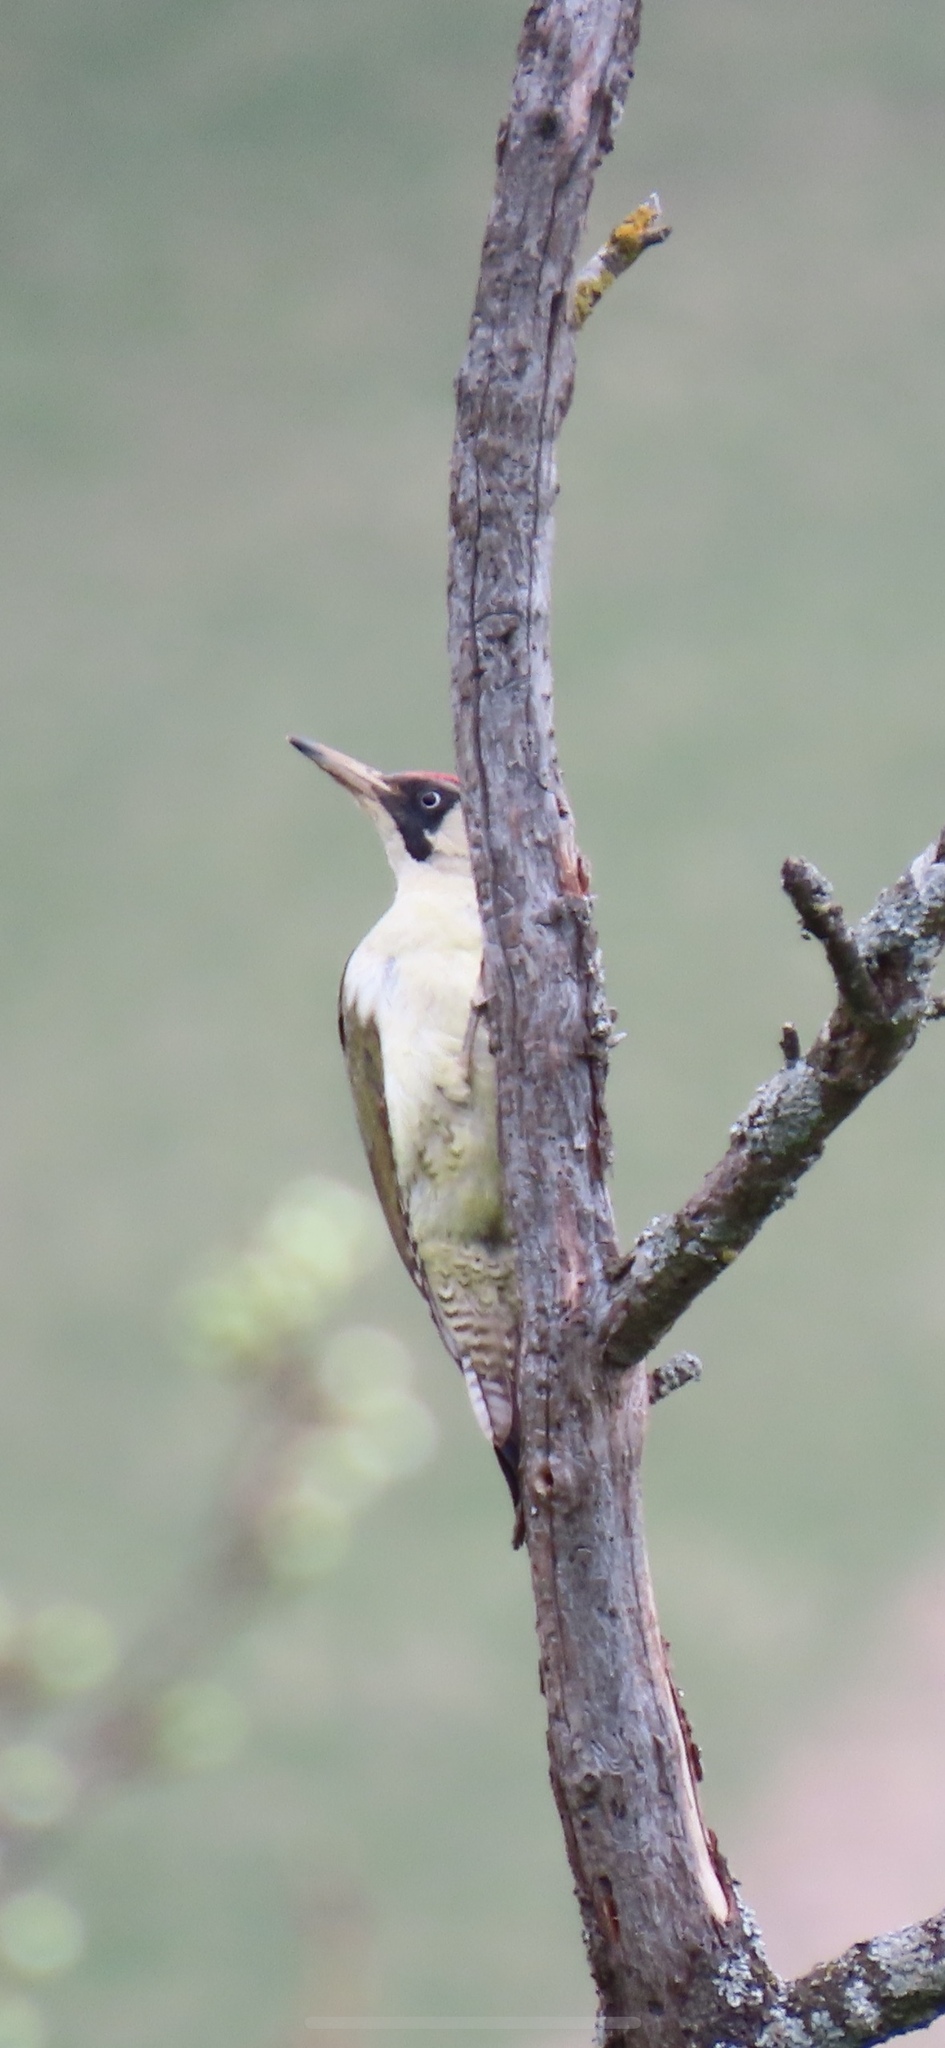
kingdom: Animalia
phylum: Chordata
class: Aves
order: Piciformes
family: Picidae
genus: Picus
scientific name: Picus viridis
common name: European green woodpecker
